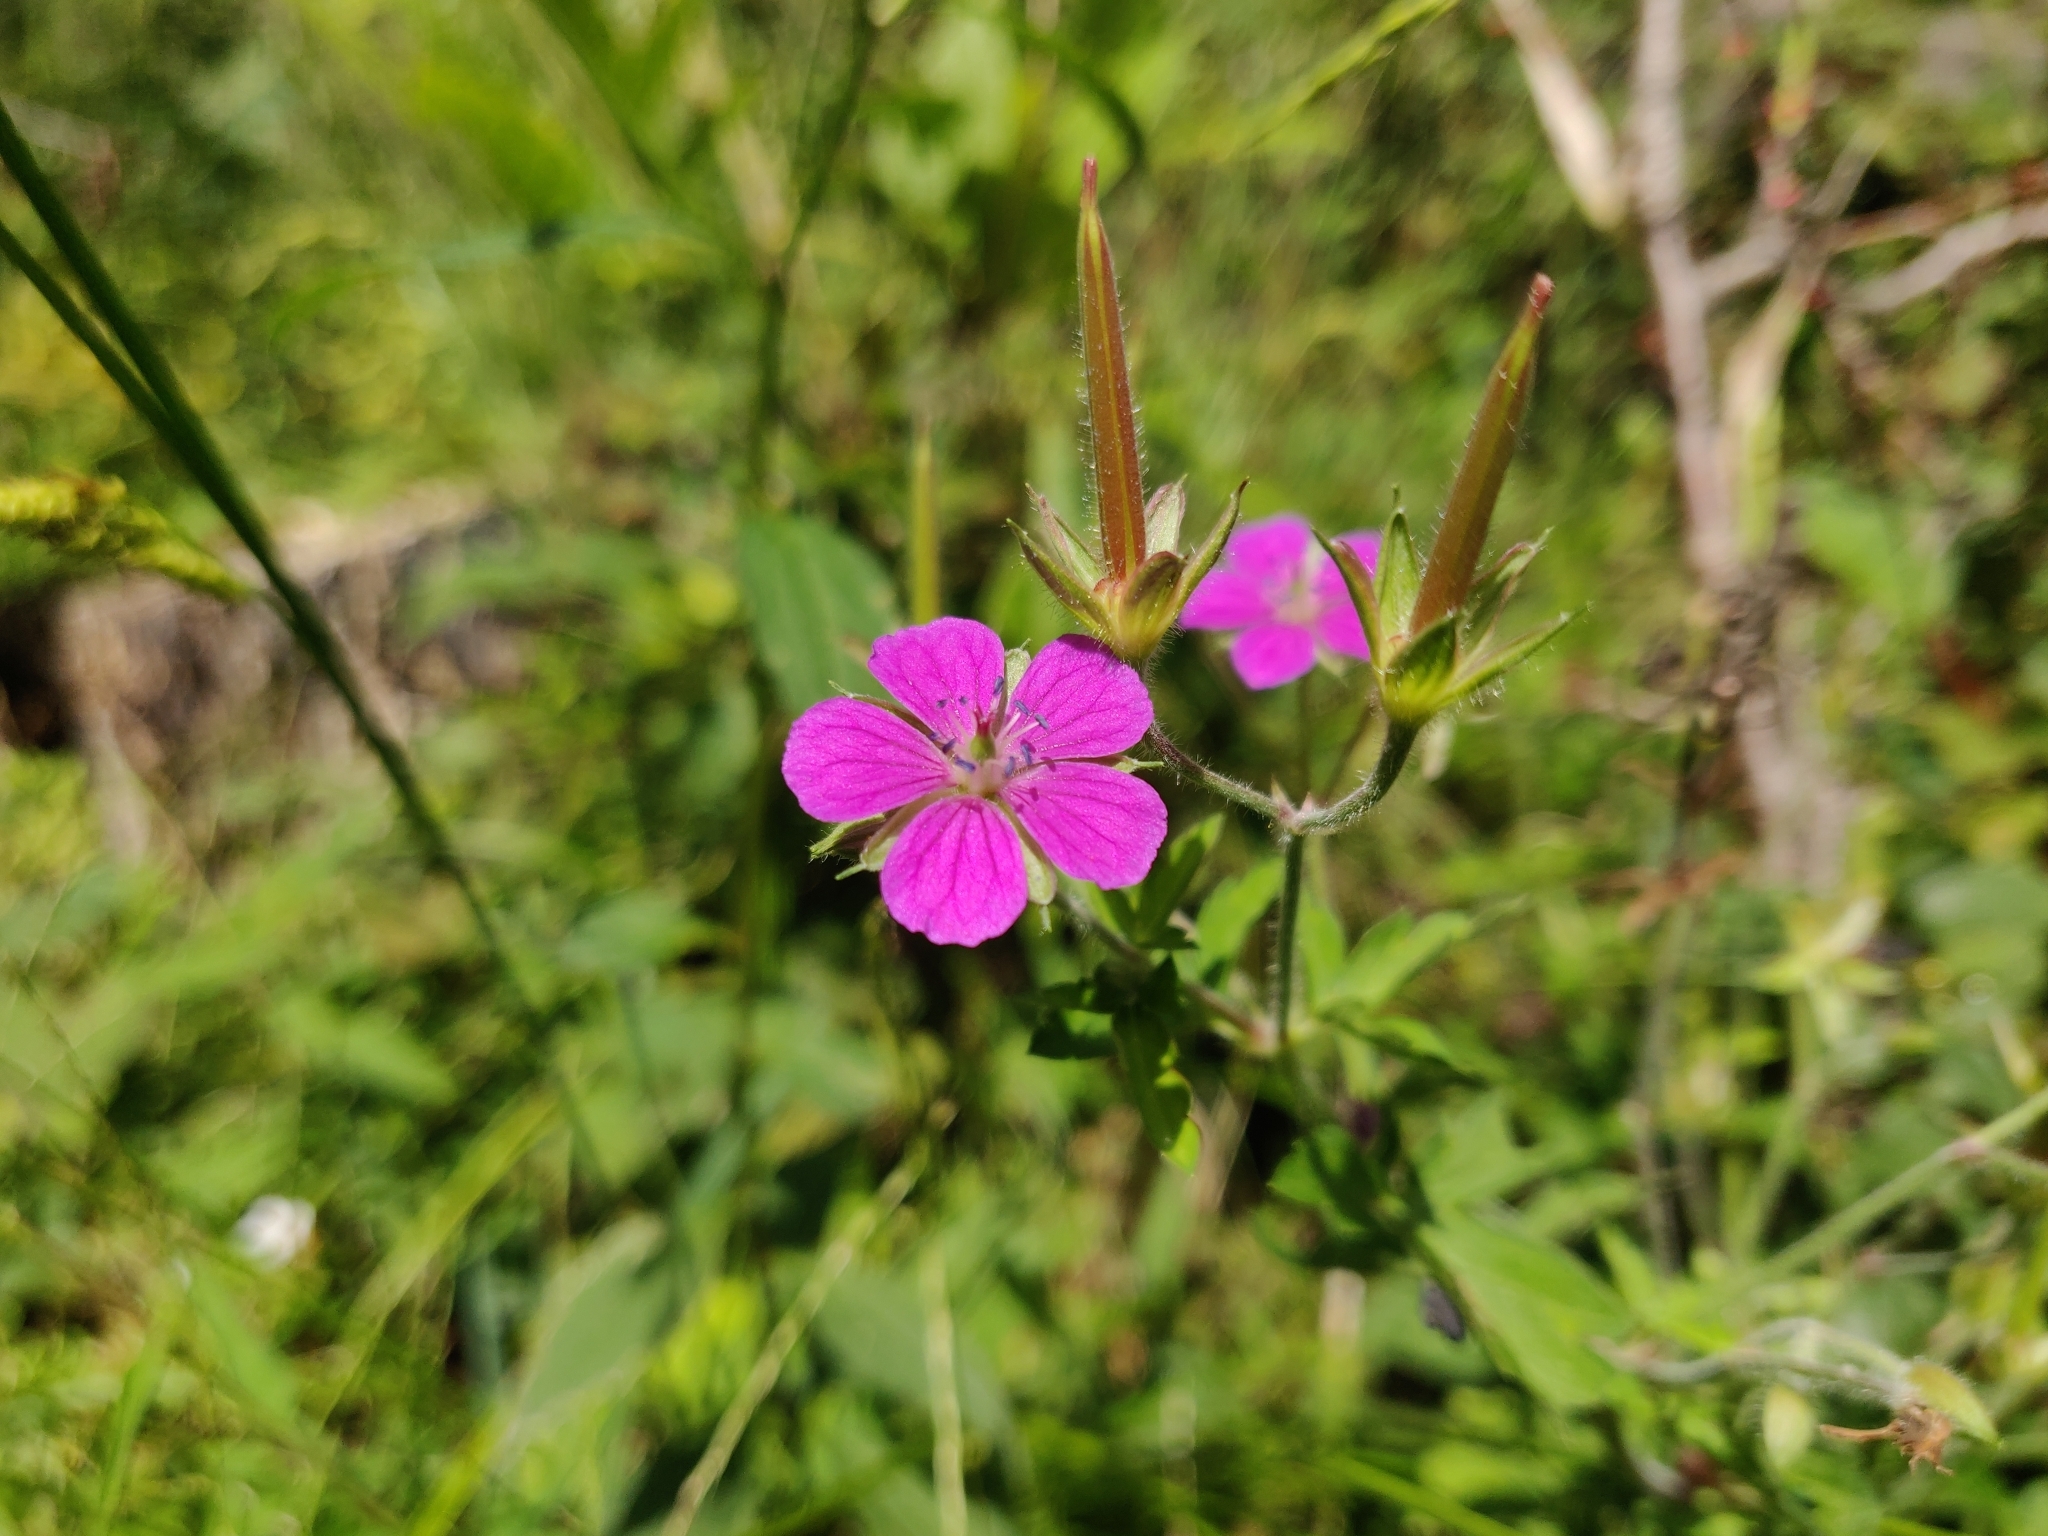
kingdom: Plantae
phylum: Tracheophyta
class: Magnoliopsida
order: Geraniales
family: Geraniaceae
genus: Geranium
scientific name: Geranium thunbergii
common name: Dewdrop crane's-bill
